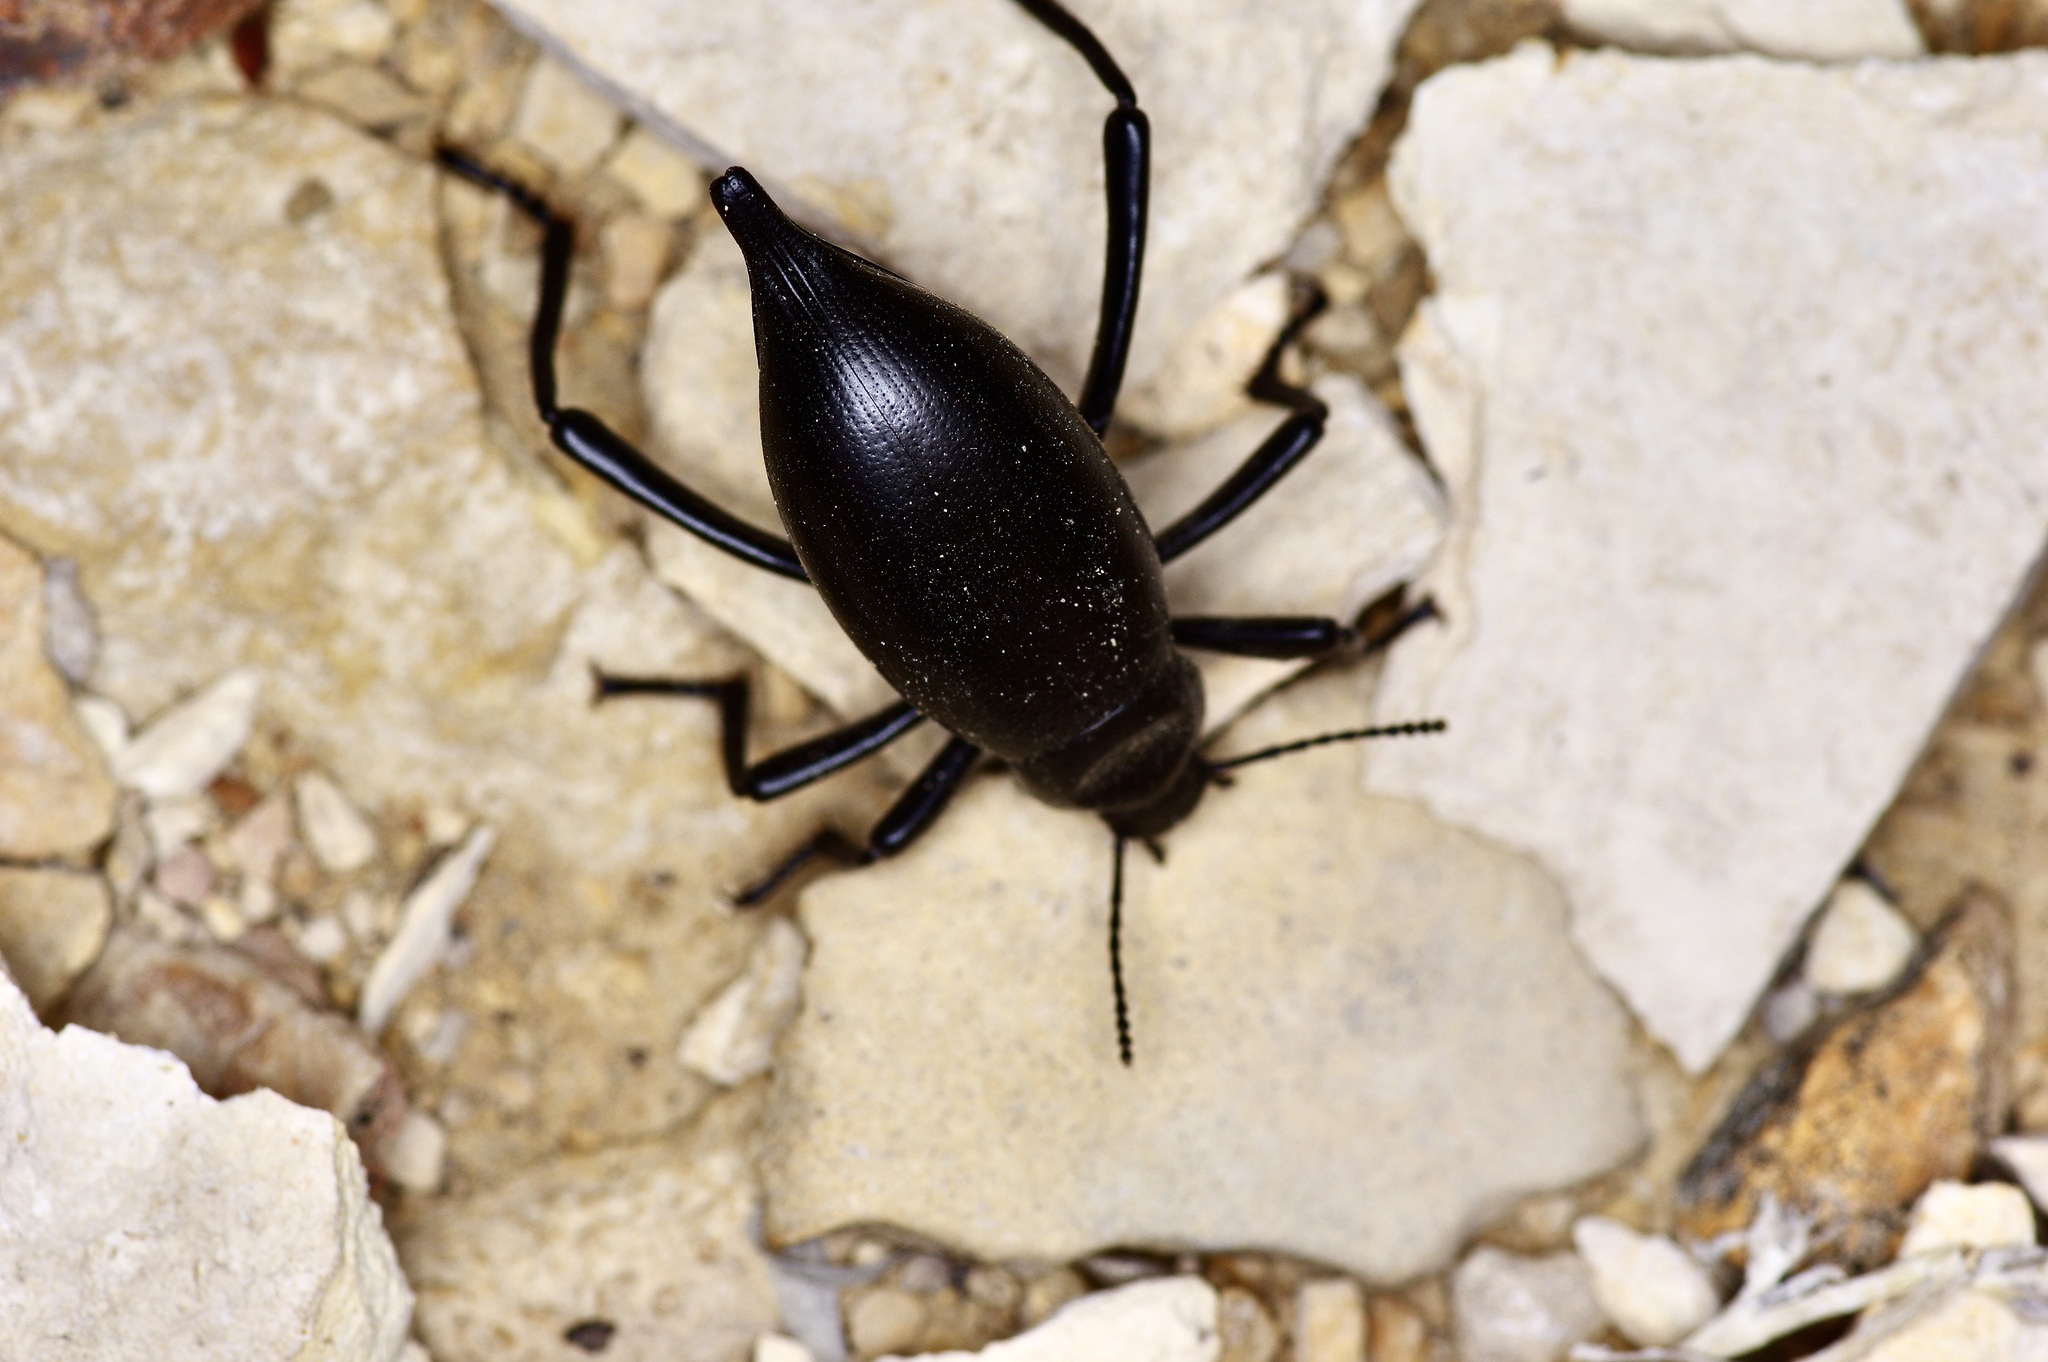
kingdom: Animalia
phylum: Arthropoda
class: Insecta
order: Coleoptera
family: Tenebrionidae
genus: Eleodes
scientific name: Eleodes spinipes
